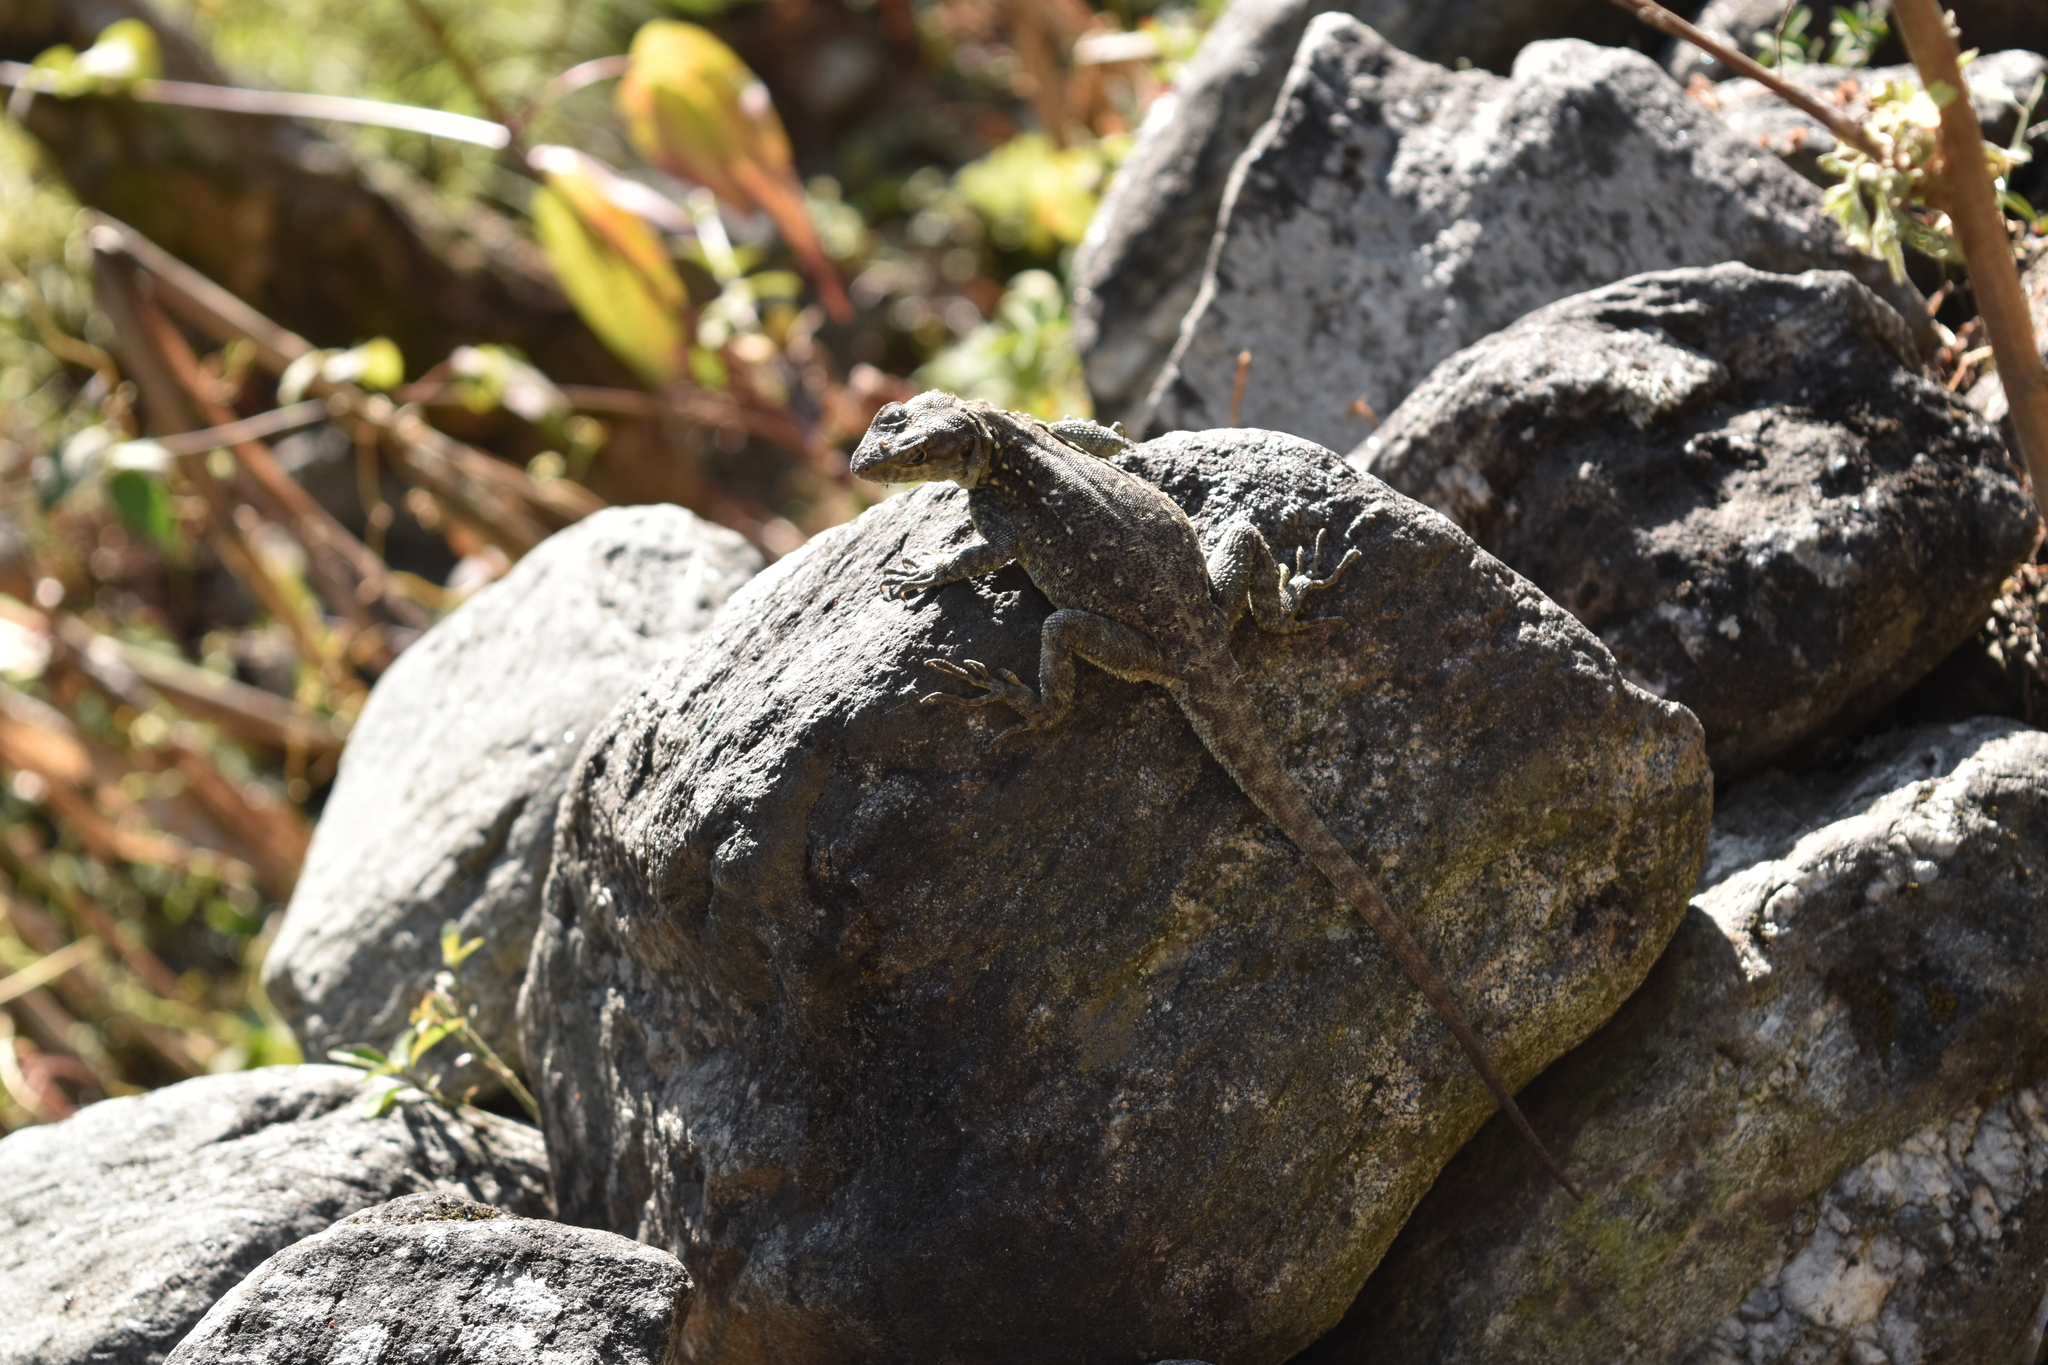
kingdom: Animalia
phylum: Chordata
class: Squamata
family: Agamidae
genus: Laudakia
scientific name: Laudakia tuberculata
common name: Kashmir rock agama
